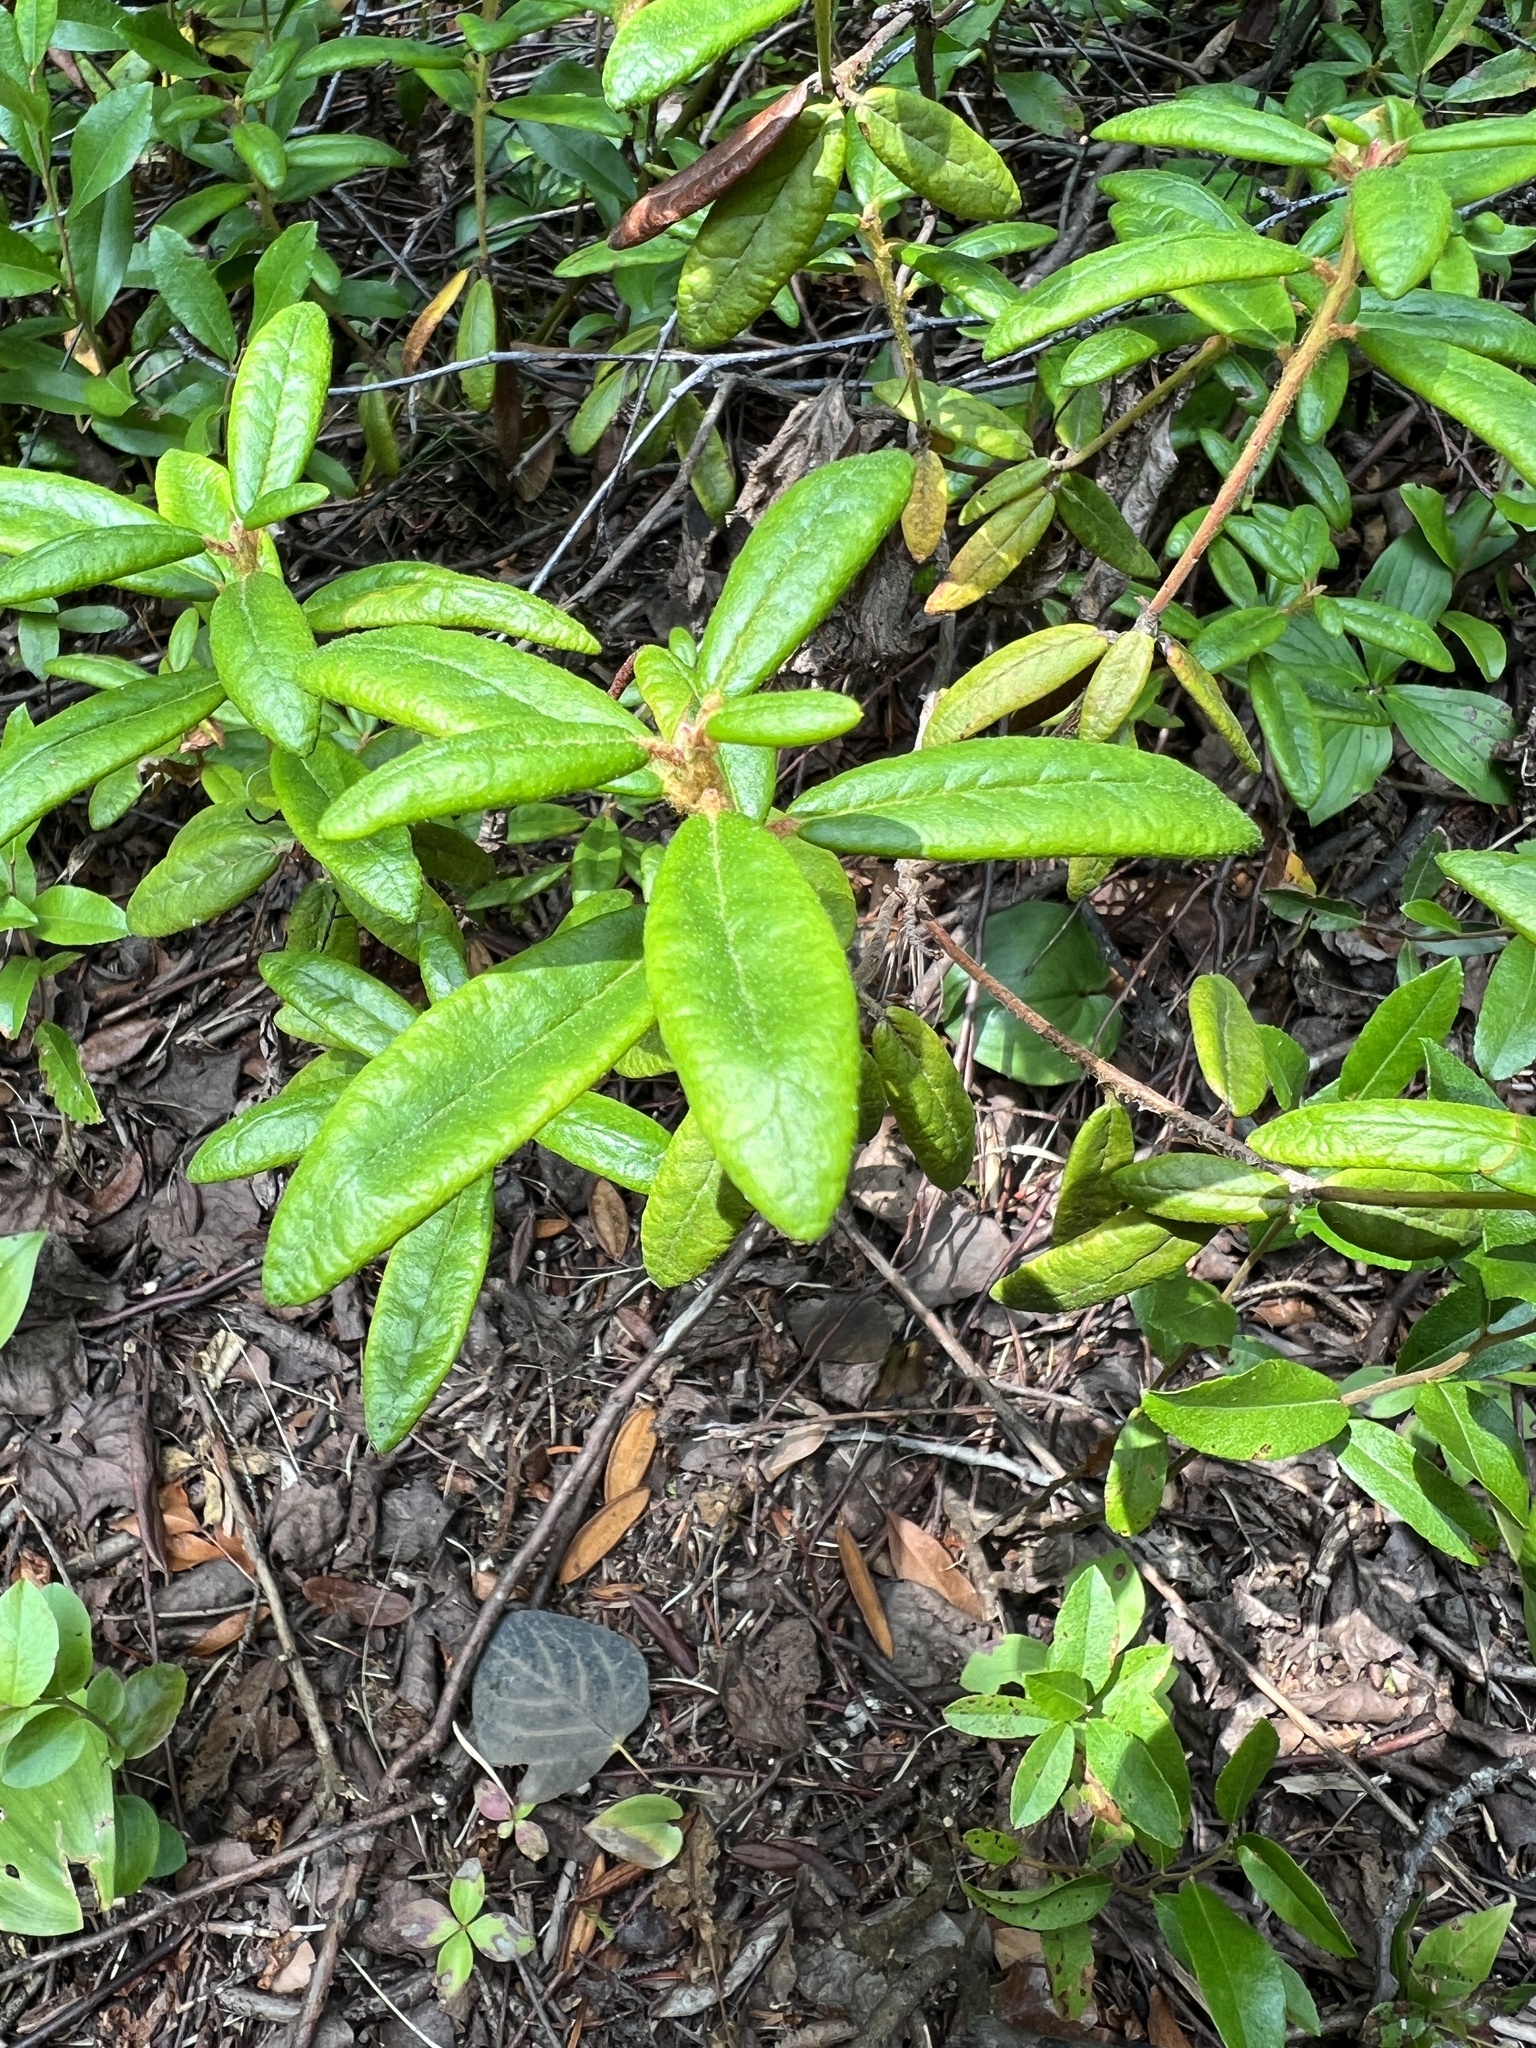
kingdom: Plantae
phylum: Tracheophyta
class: Magnoliopsida
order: Ericales
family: Ericaceae
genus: Rhododendron
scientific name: Rhododendron groenlandicum
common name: Bog labrador tea
